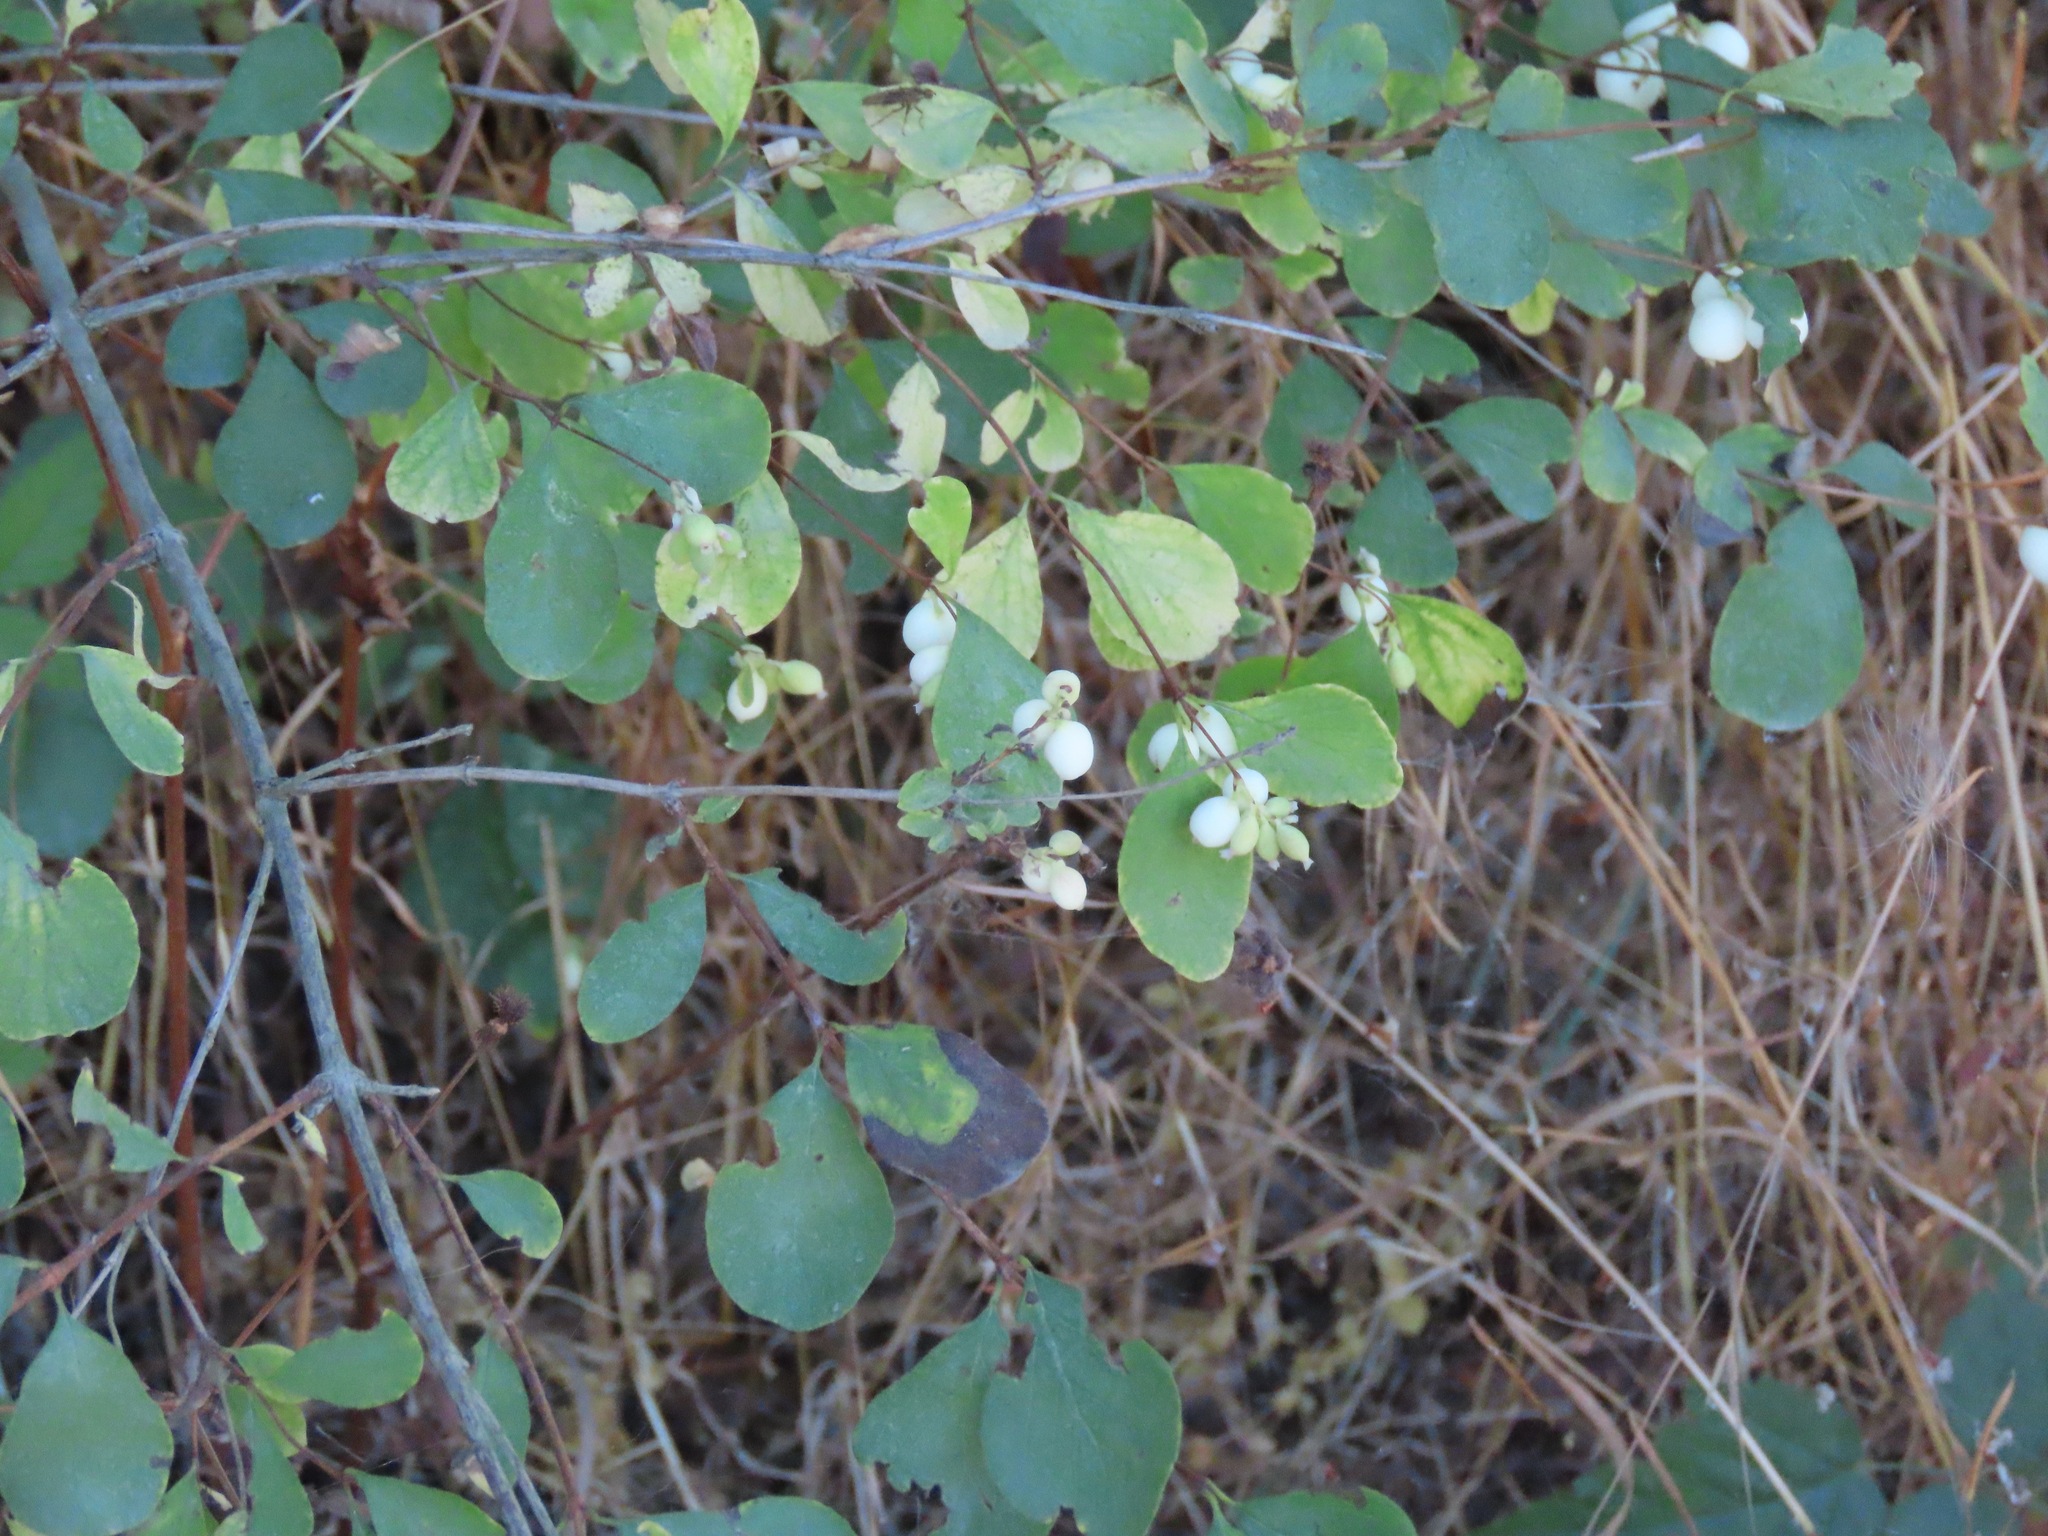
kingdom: Plantae
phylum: Tracheophyta
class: Magnoliopsida
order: Dipsacales
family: Caprifoliaceae
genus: Symphoricarpos
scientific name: Symphoricarpos albus
